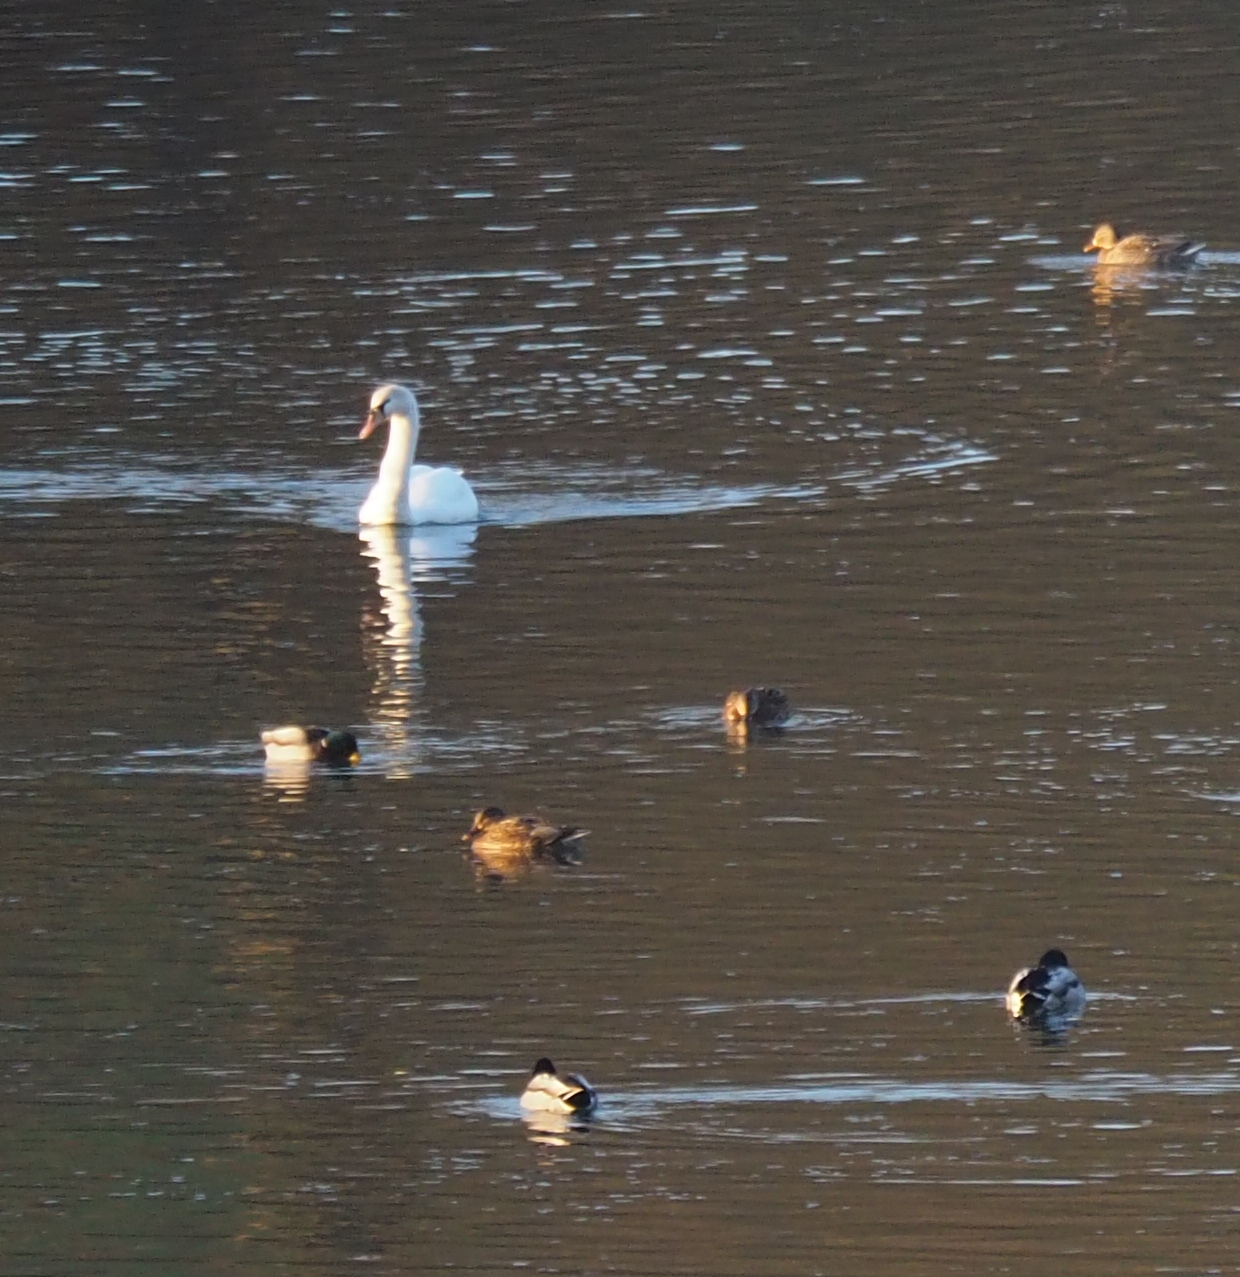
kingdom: Animalia
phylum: Chordata
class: Aves
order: Anseriformes
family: Anatidae
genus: Anas
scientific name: Anas platyrhynchos
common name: Mallard
